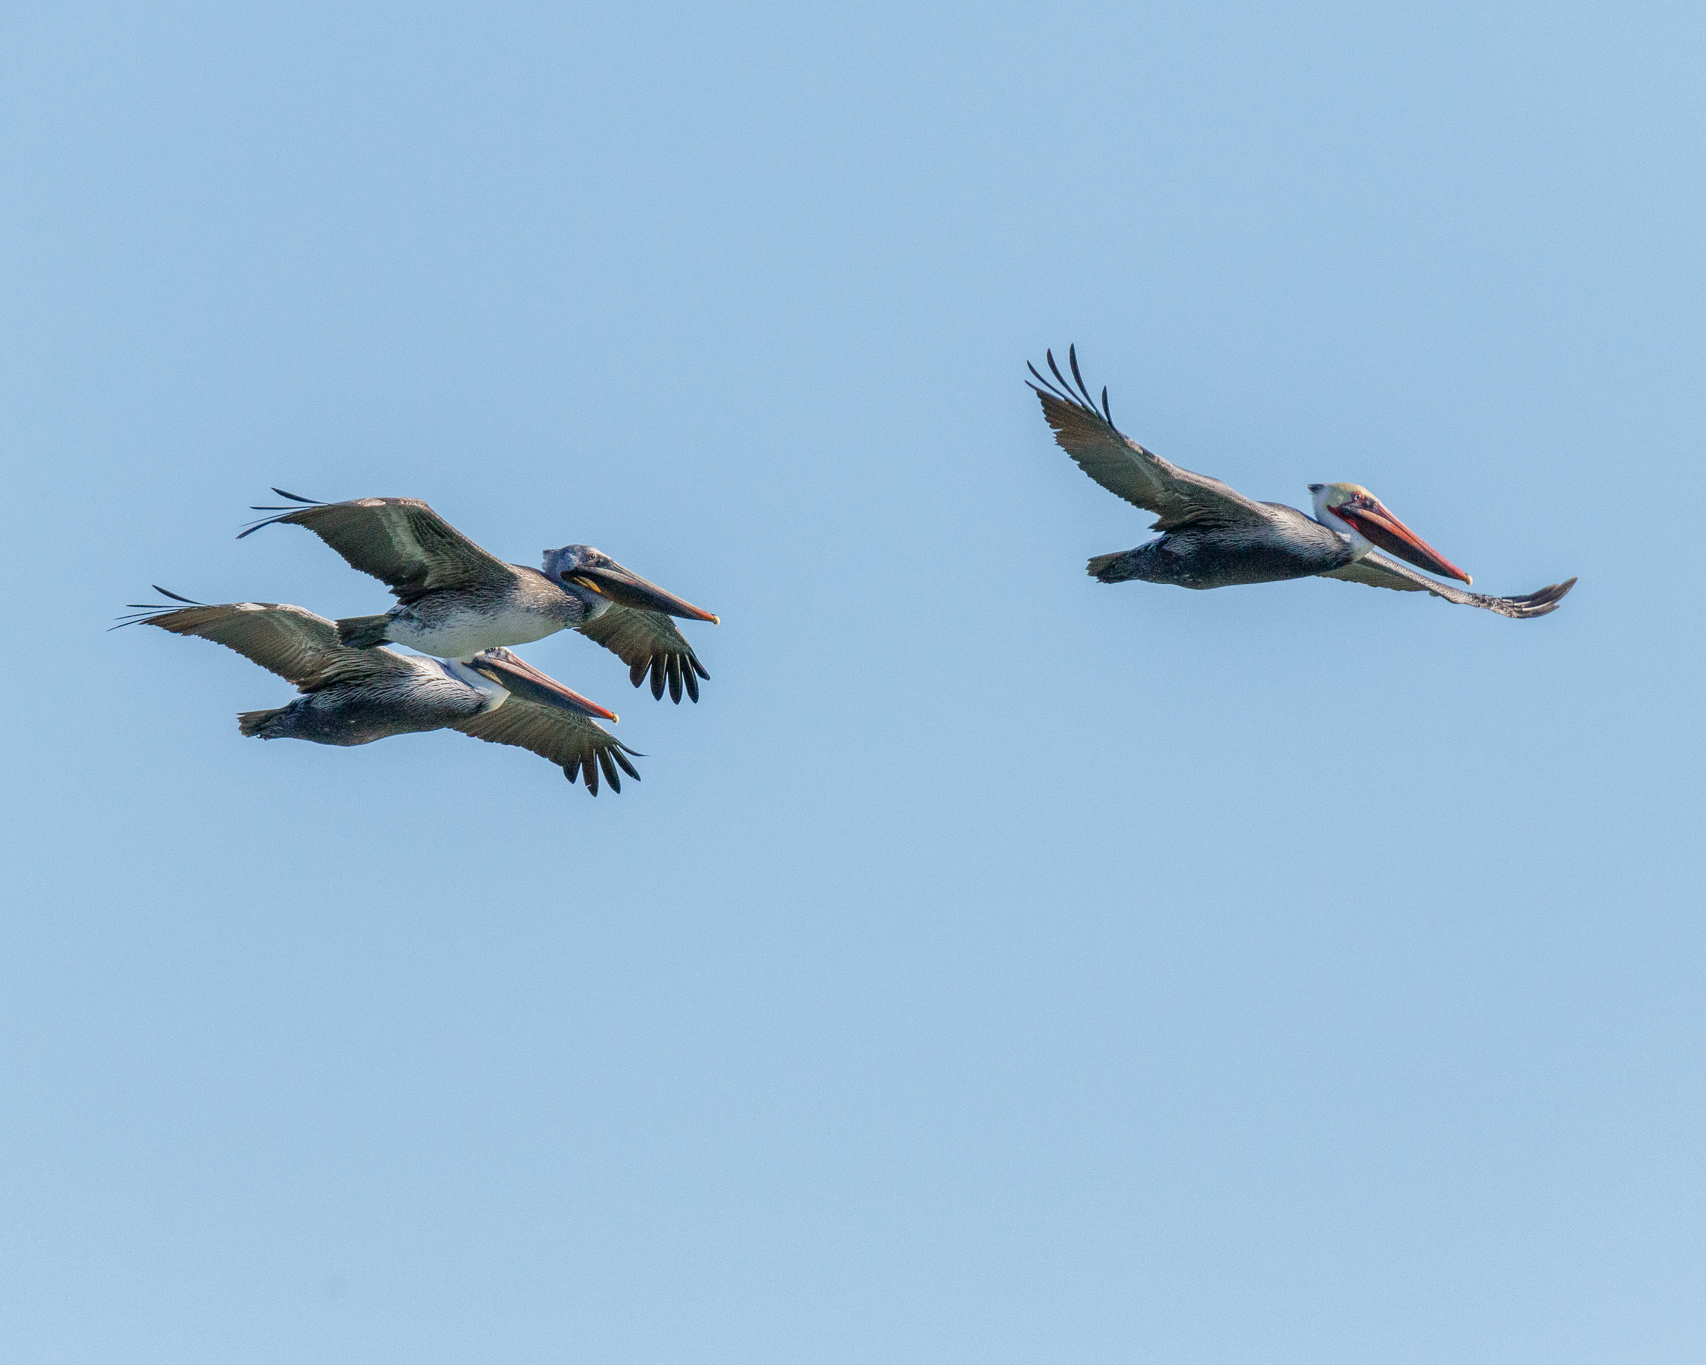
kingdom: Animalia
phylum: Chordata
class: Aves
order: Pelecaniformes
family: Pelecanidae
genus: Pelecanus
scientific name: Pelecanus occidentalis
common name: Brown pelican
